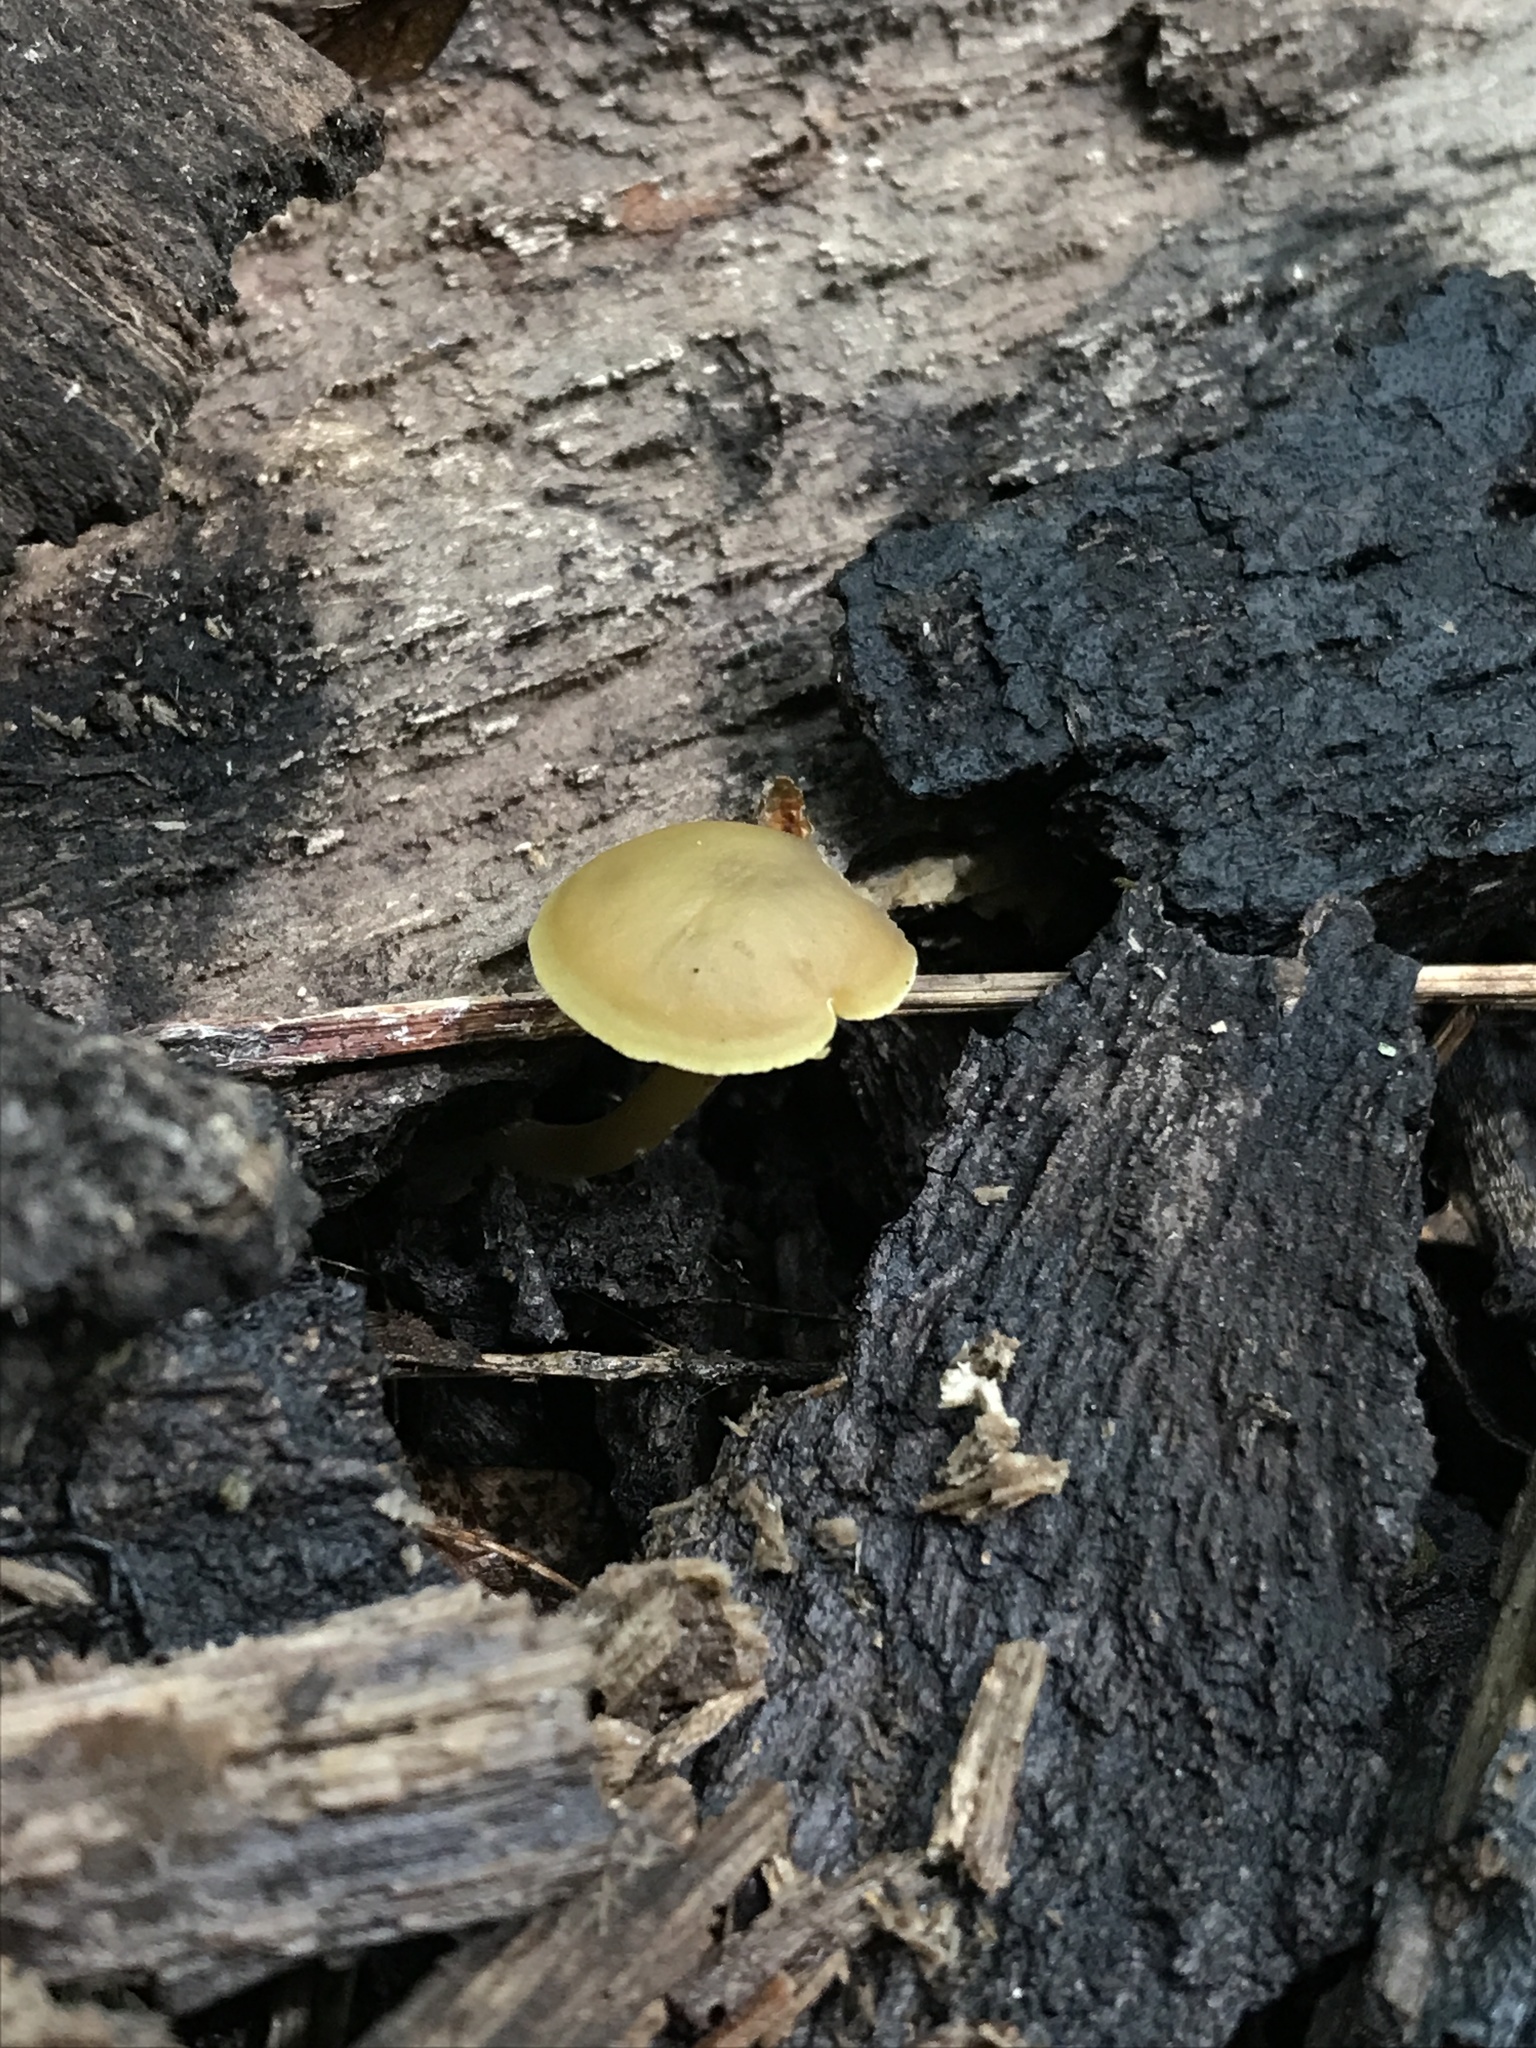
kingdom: Fungi
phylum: Basidiomycota
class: Agaricomycetes
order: Agaricales
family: Callistosporiaceae
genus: Callistosporium
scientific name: Callistosporium luteo-olivaceum
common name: Olive lute
